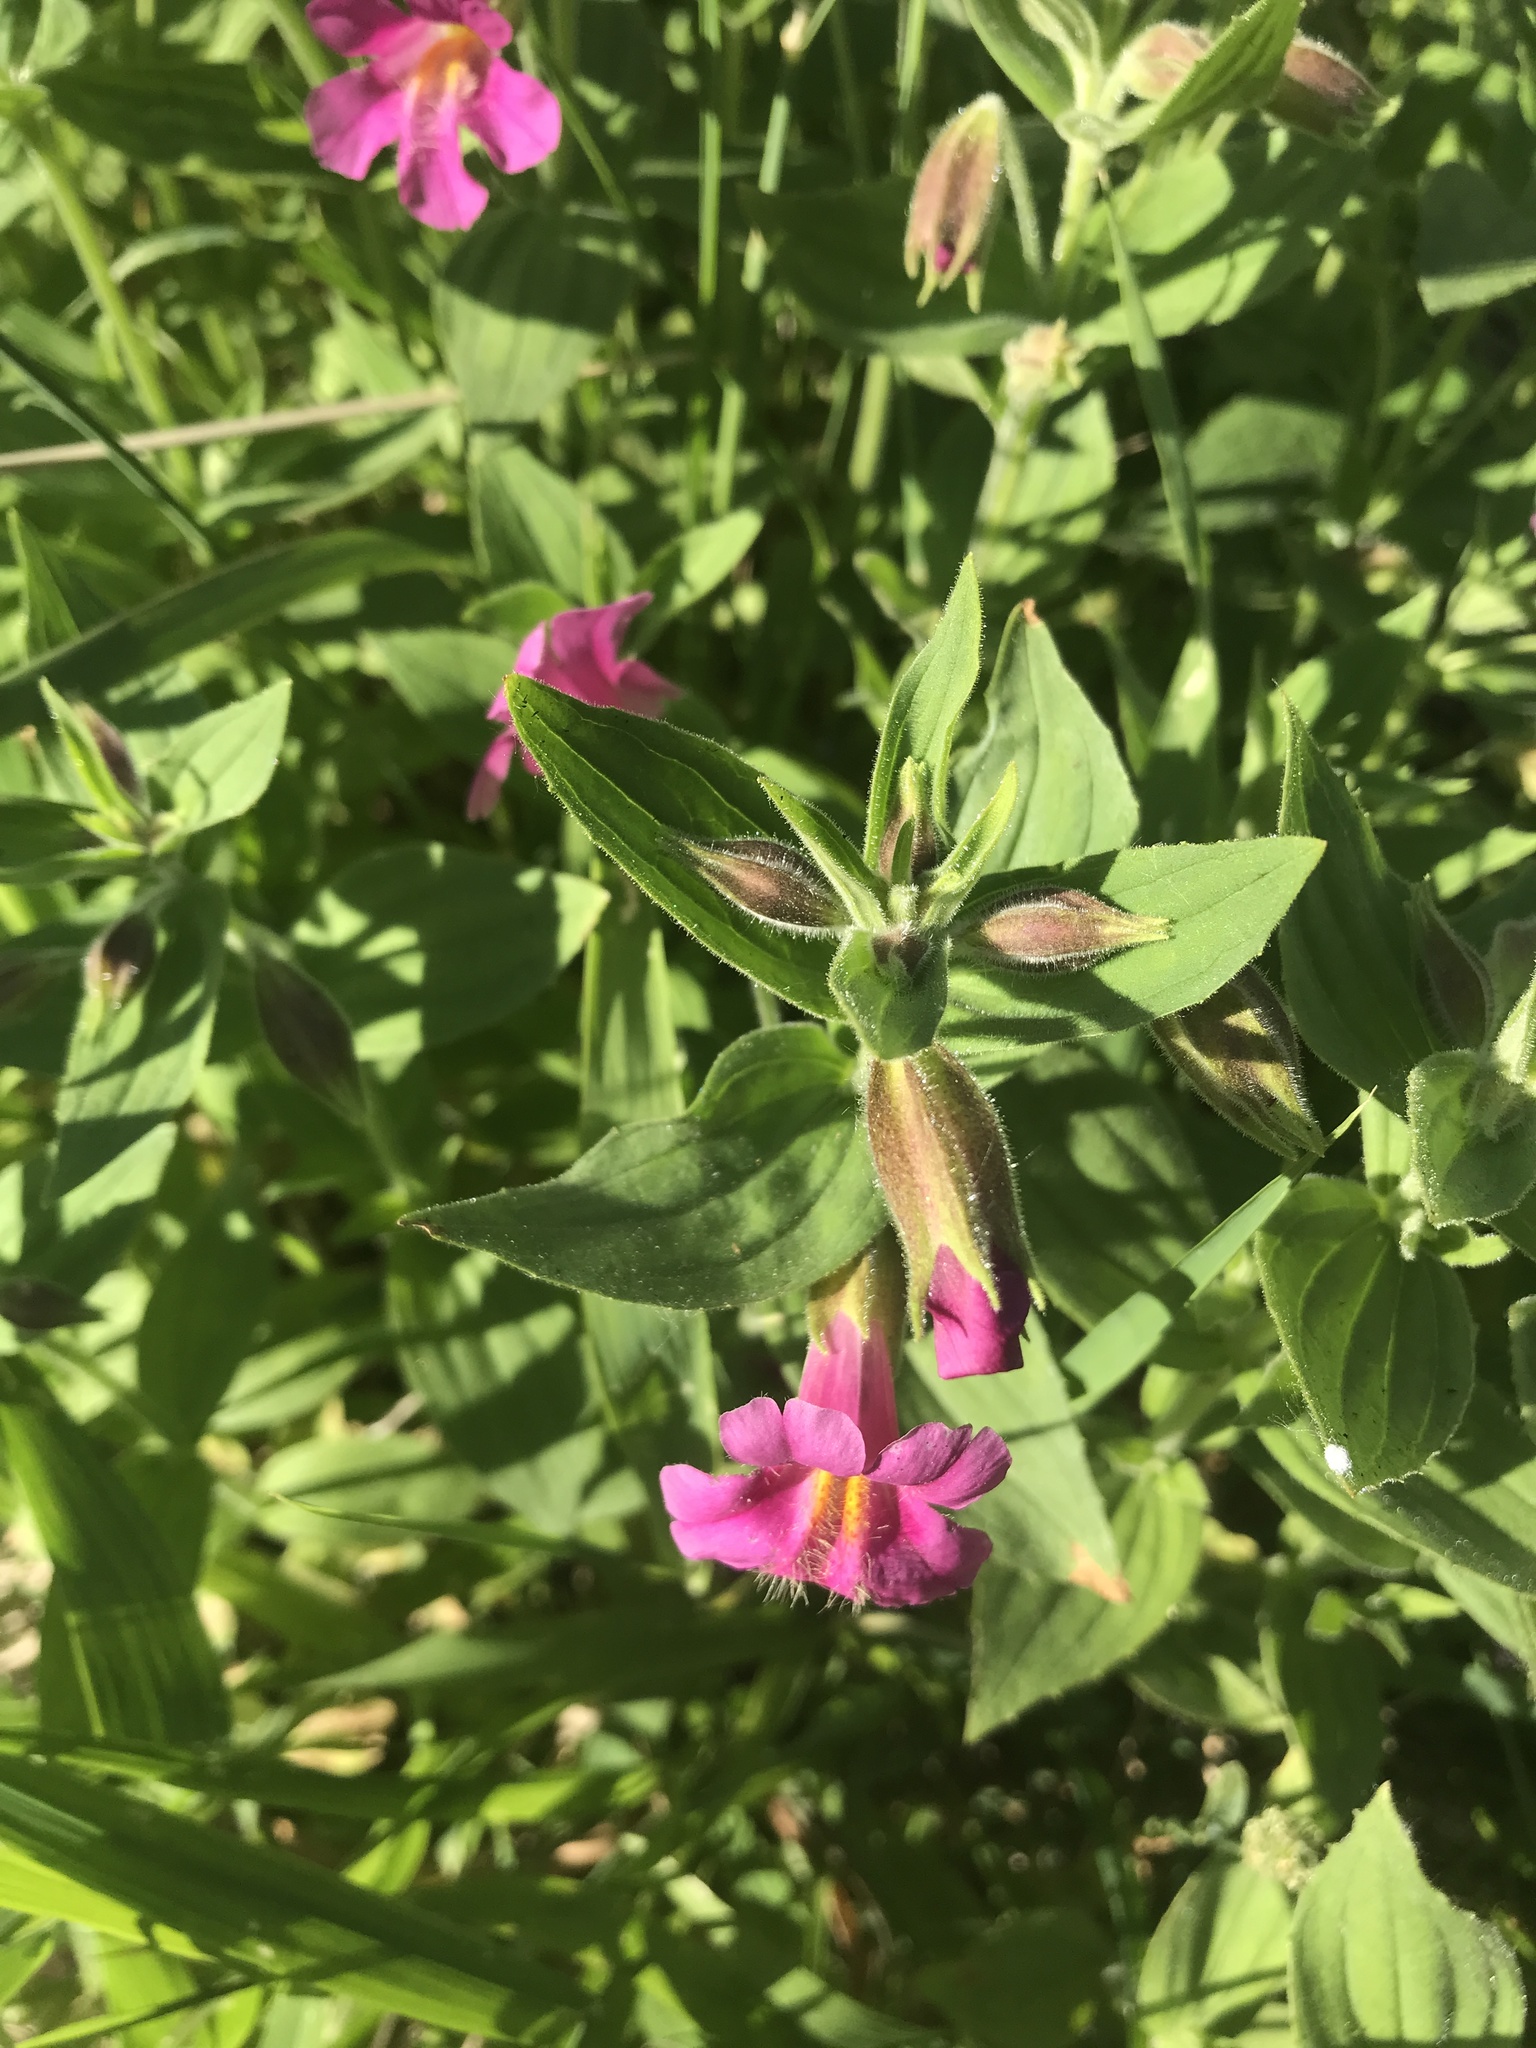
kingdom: Plantae
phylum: Tracheophyta
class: Magnoliopsida
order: Lamiales
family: Phrymaceae
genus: Erythranthe
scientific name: Erythranthe lewisii
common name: Lewis's monkey-flower
